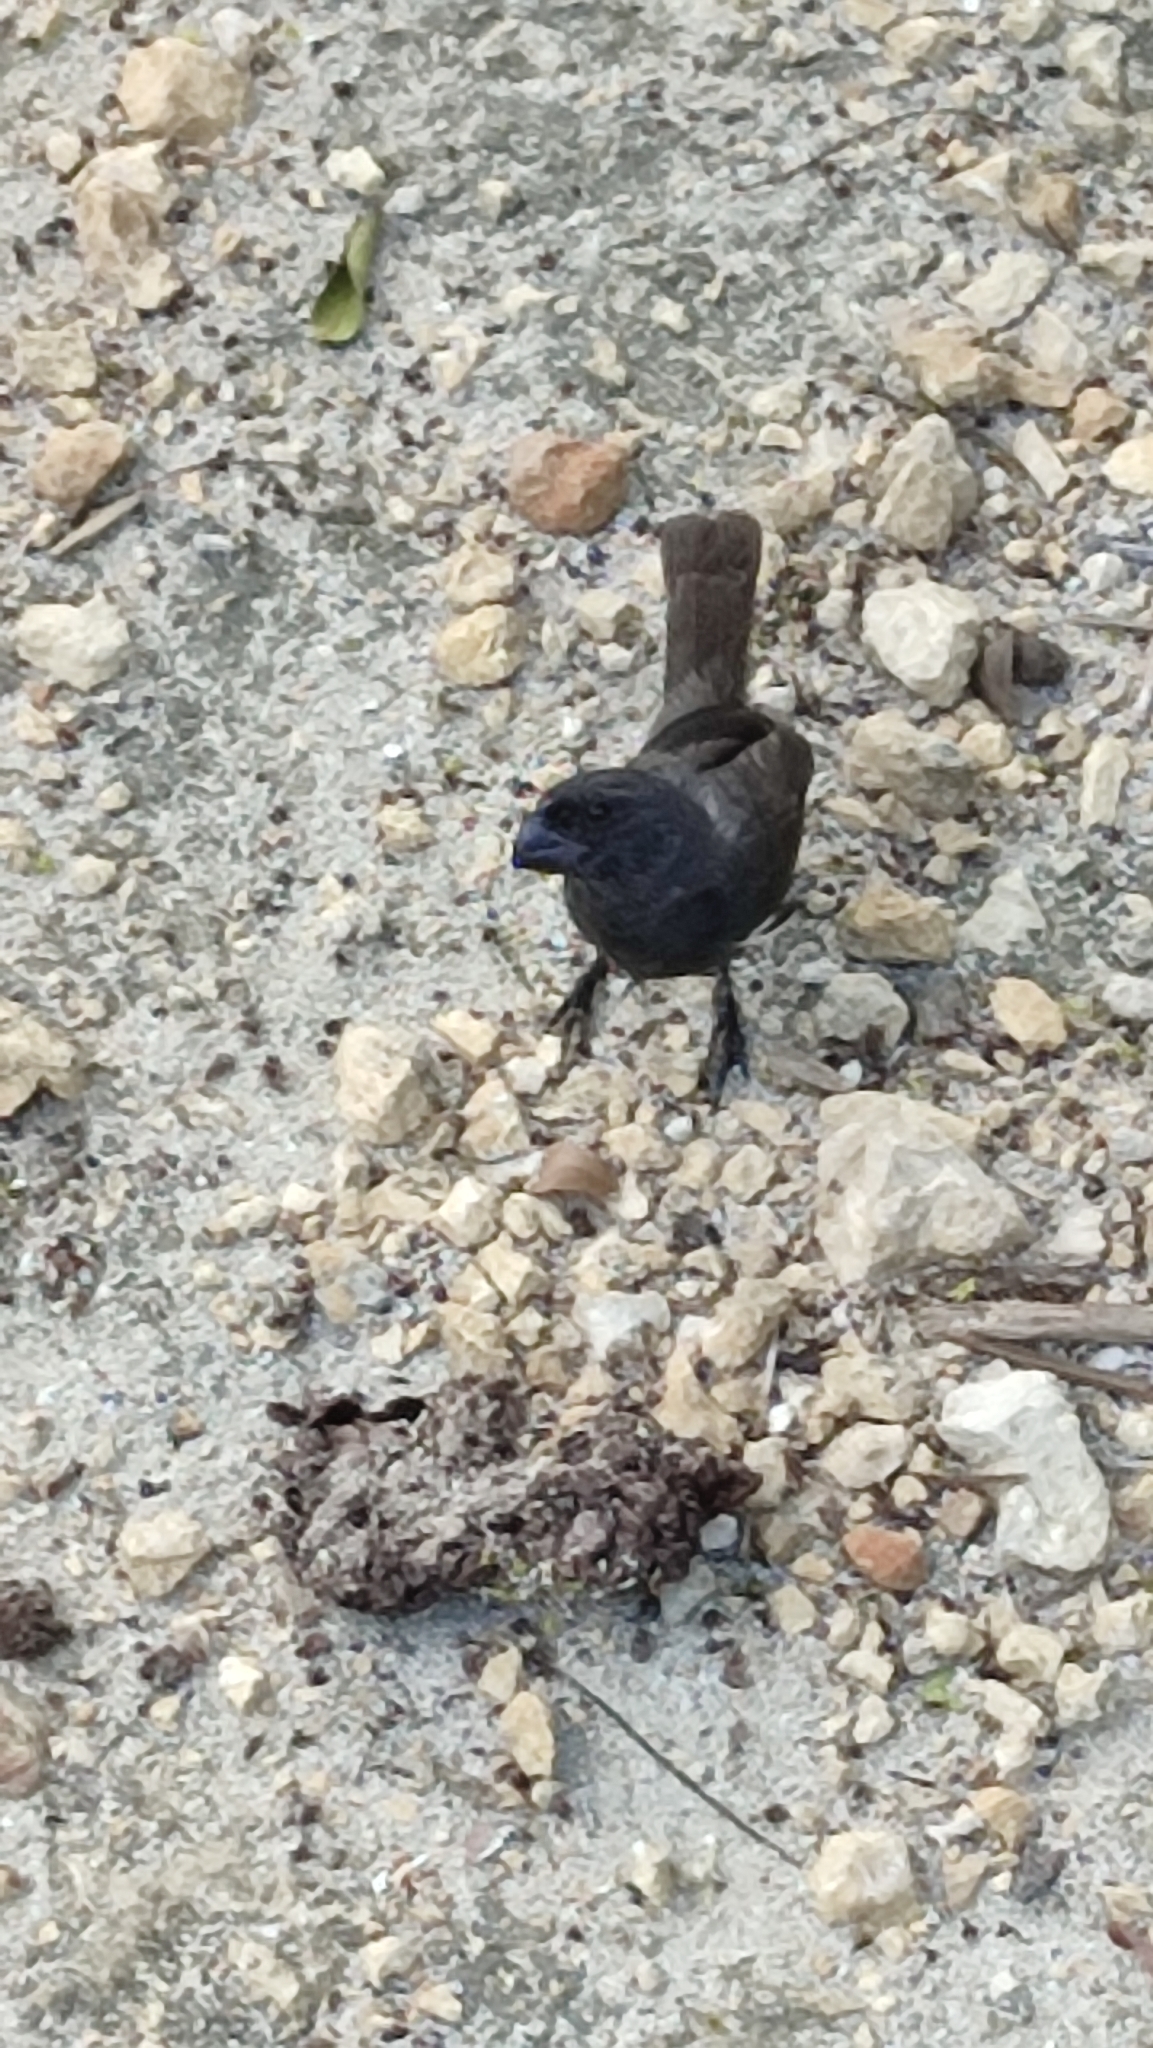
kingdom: Animalia
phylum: Chordata
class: Aves
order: Passeriformes
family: Thraupidae
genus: Melopyrrha
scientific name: Melopyrrha nigra
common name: Cuban bullfinch
